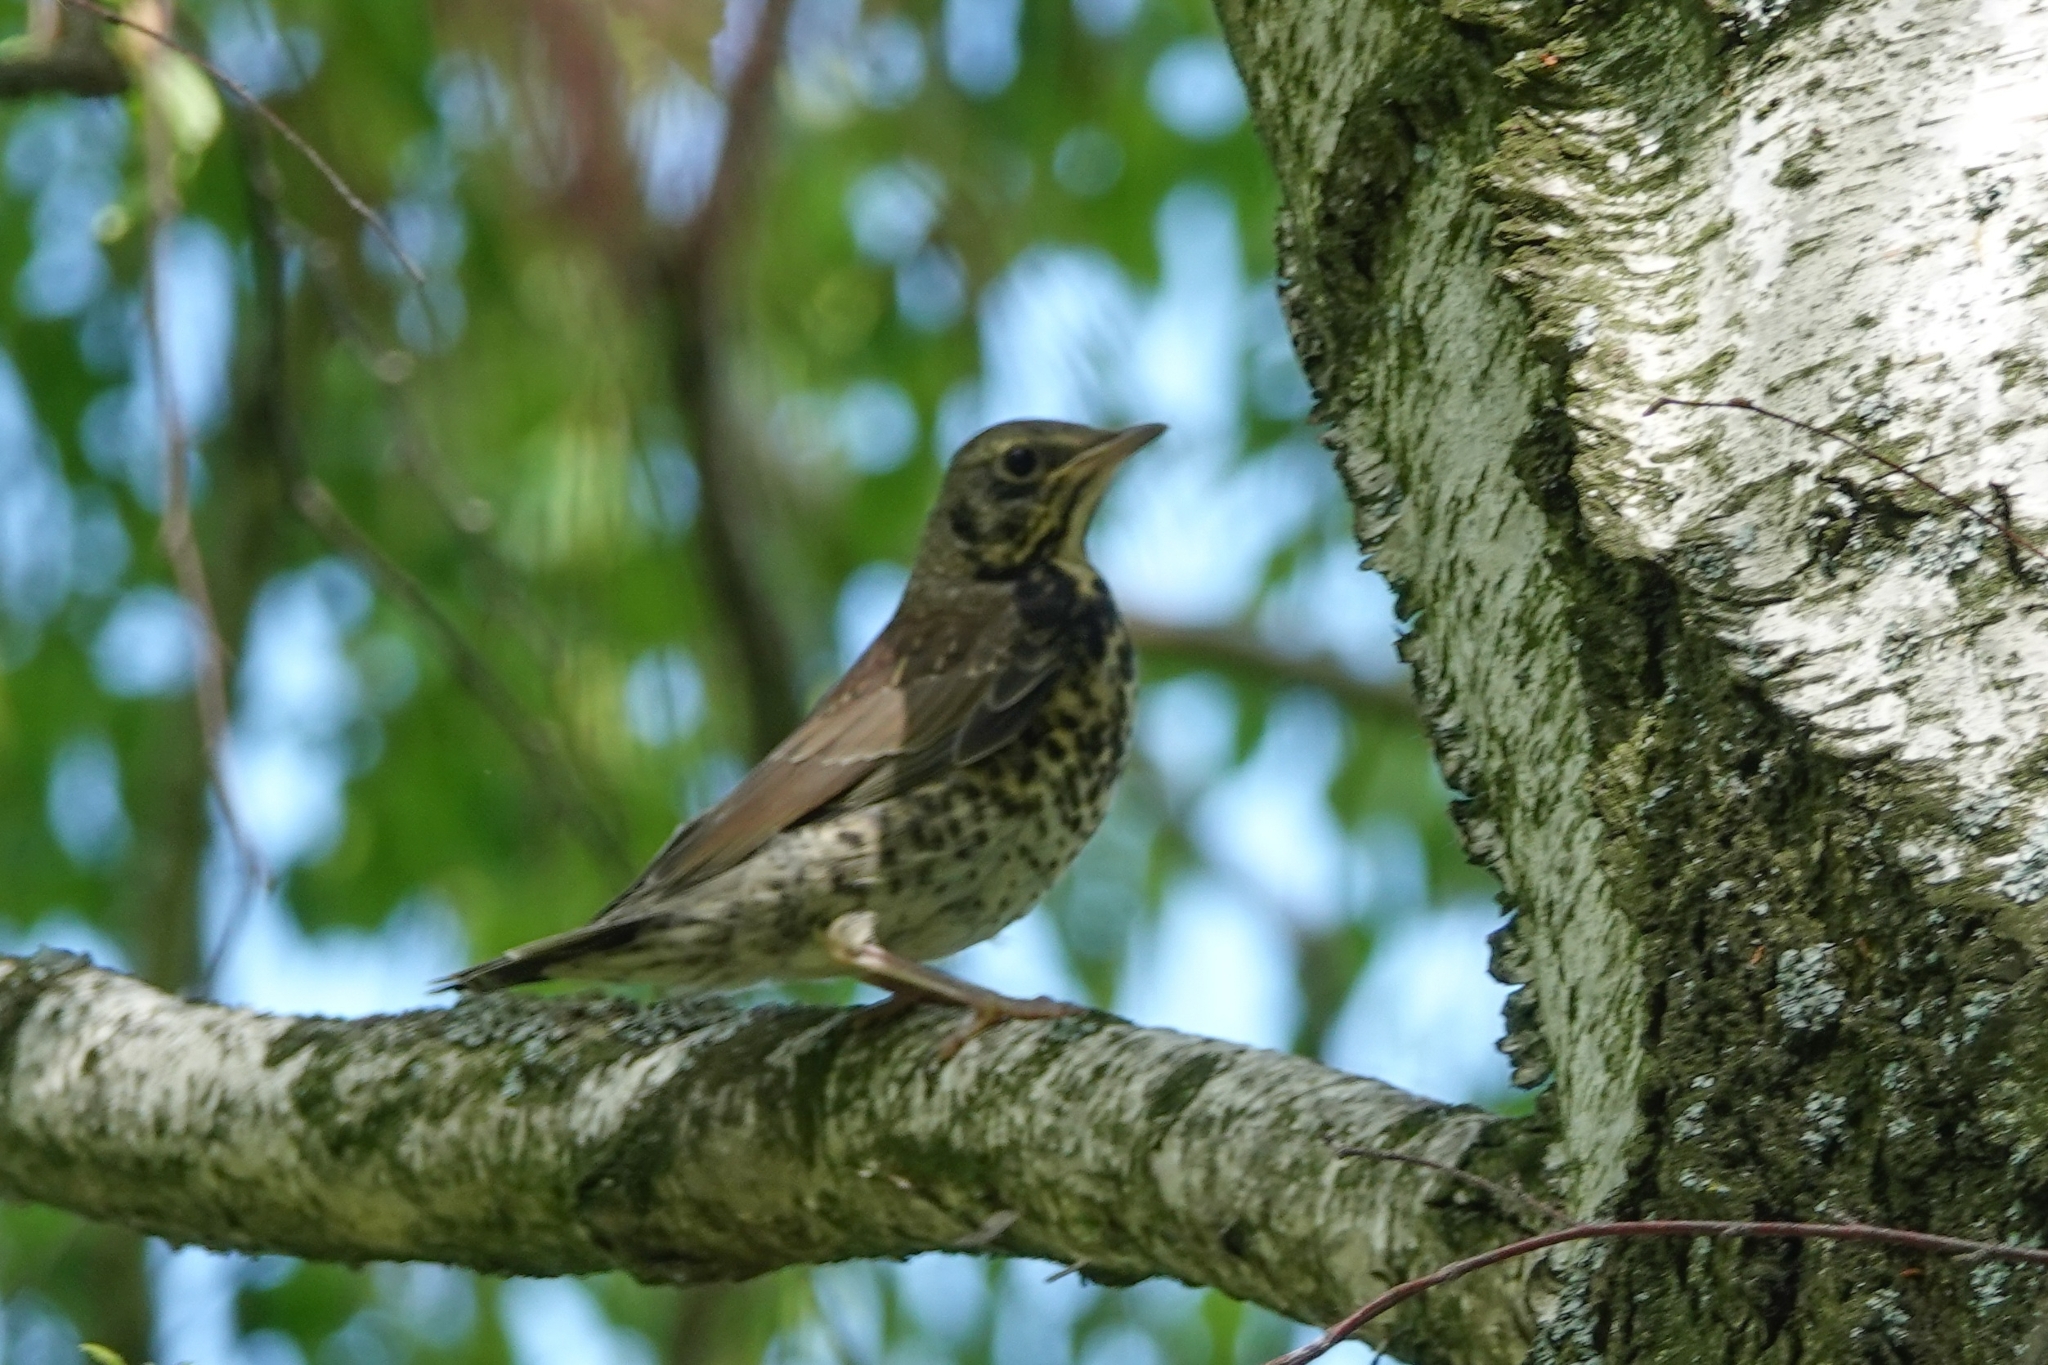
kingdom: Animalia
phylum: Chordata
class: Aves
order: Passeriformes
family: Turdidae
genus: Turdus
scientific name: Turdus pilaris
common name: Fieldfare
